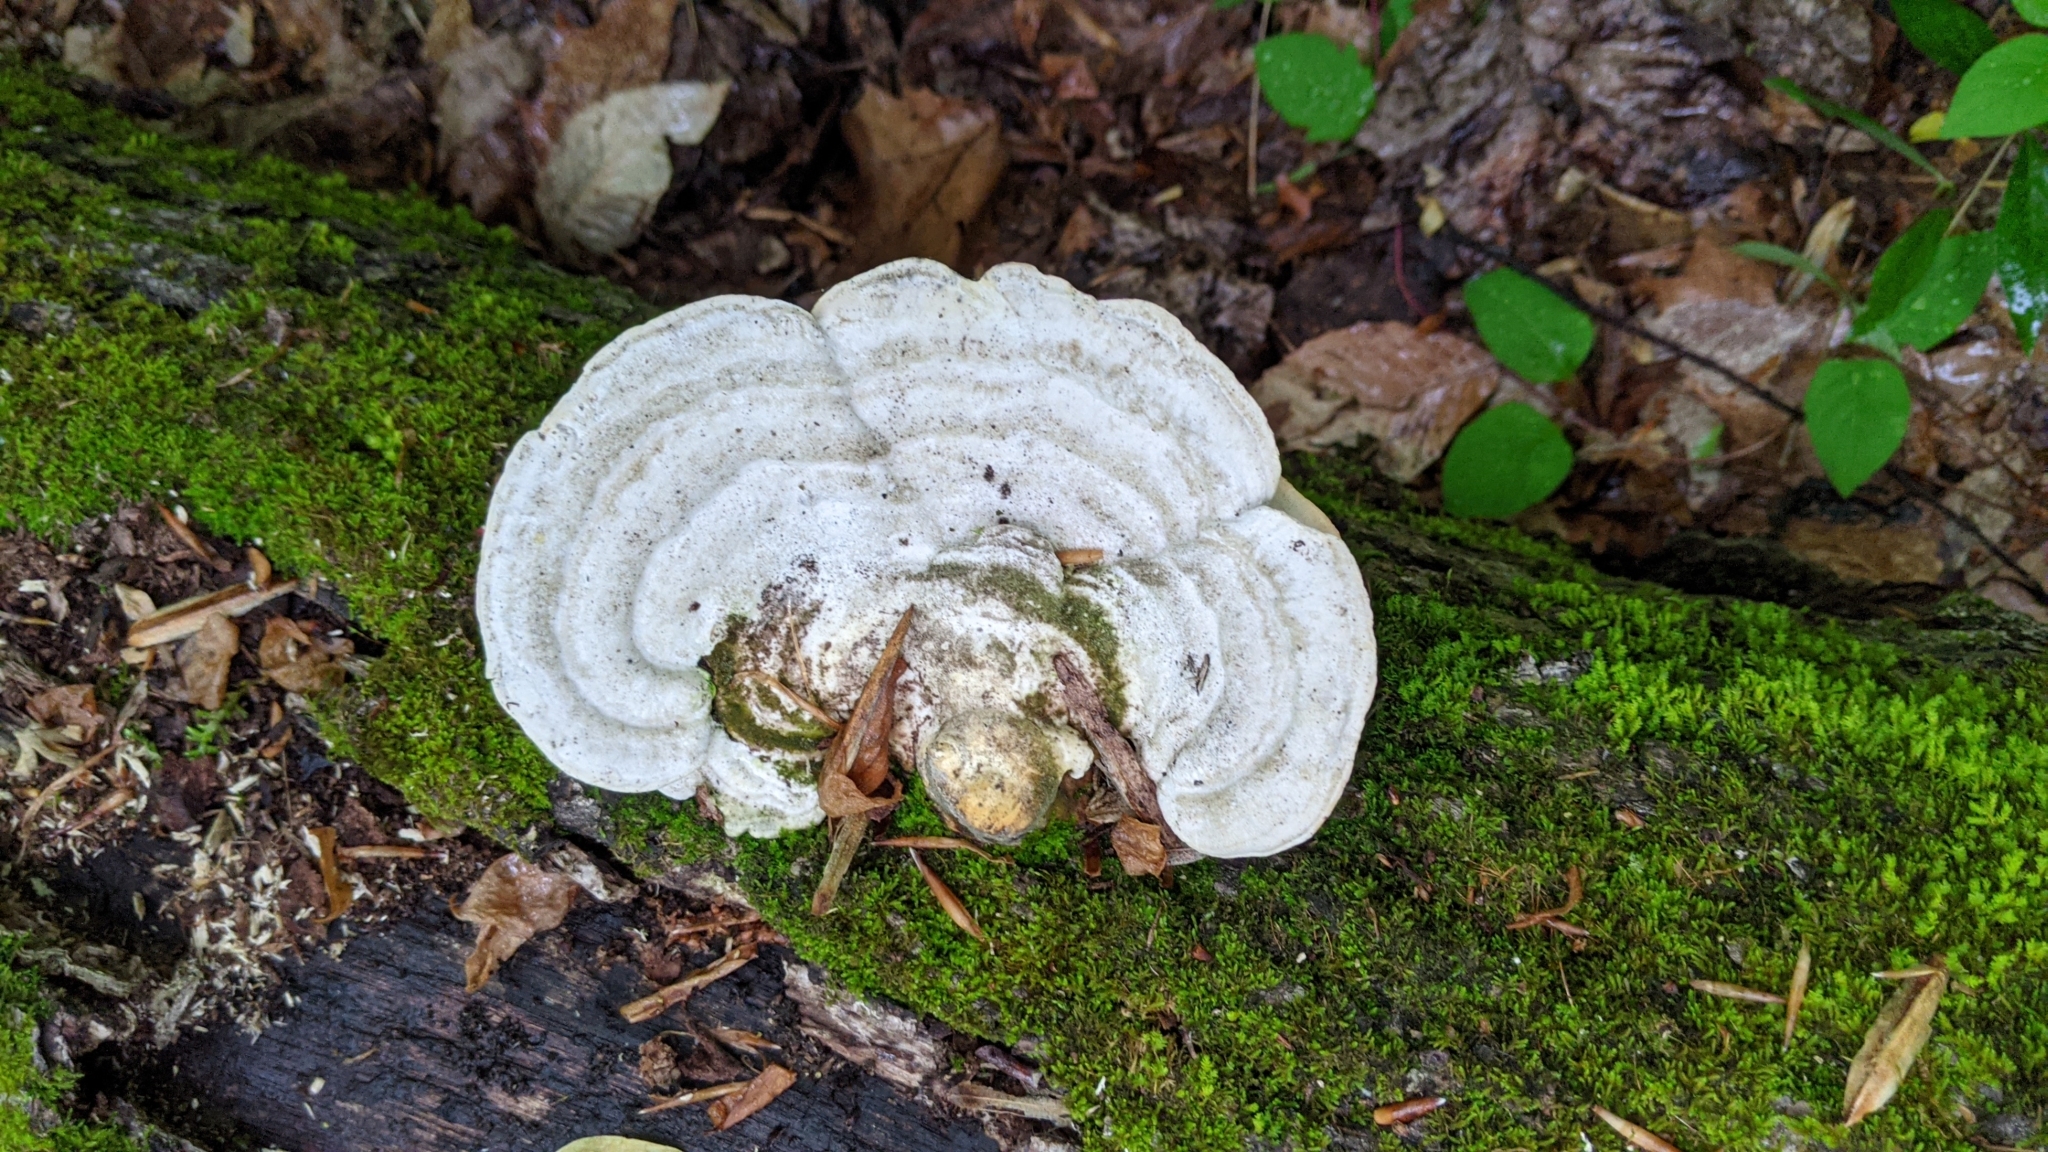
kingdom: Fungi
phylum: Basidiomycota
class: Agaricomycetes
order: Polyporales
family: Polyporaceae
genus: Trametes
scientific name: Trametes gibbosa
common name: Lumpy bracket
